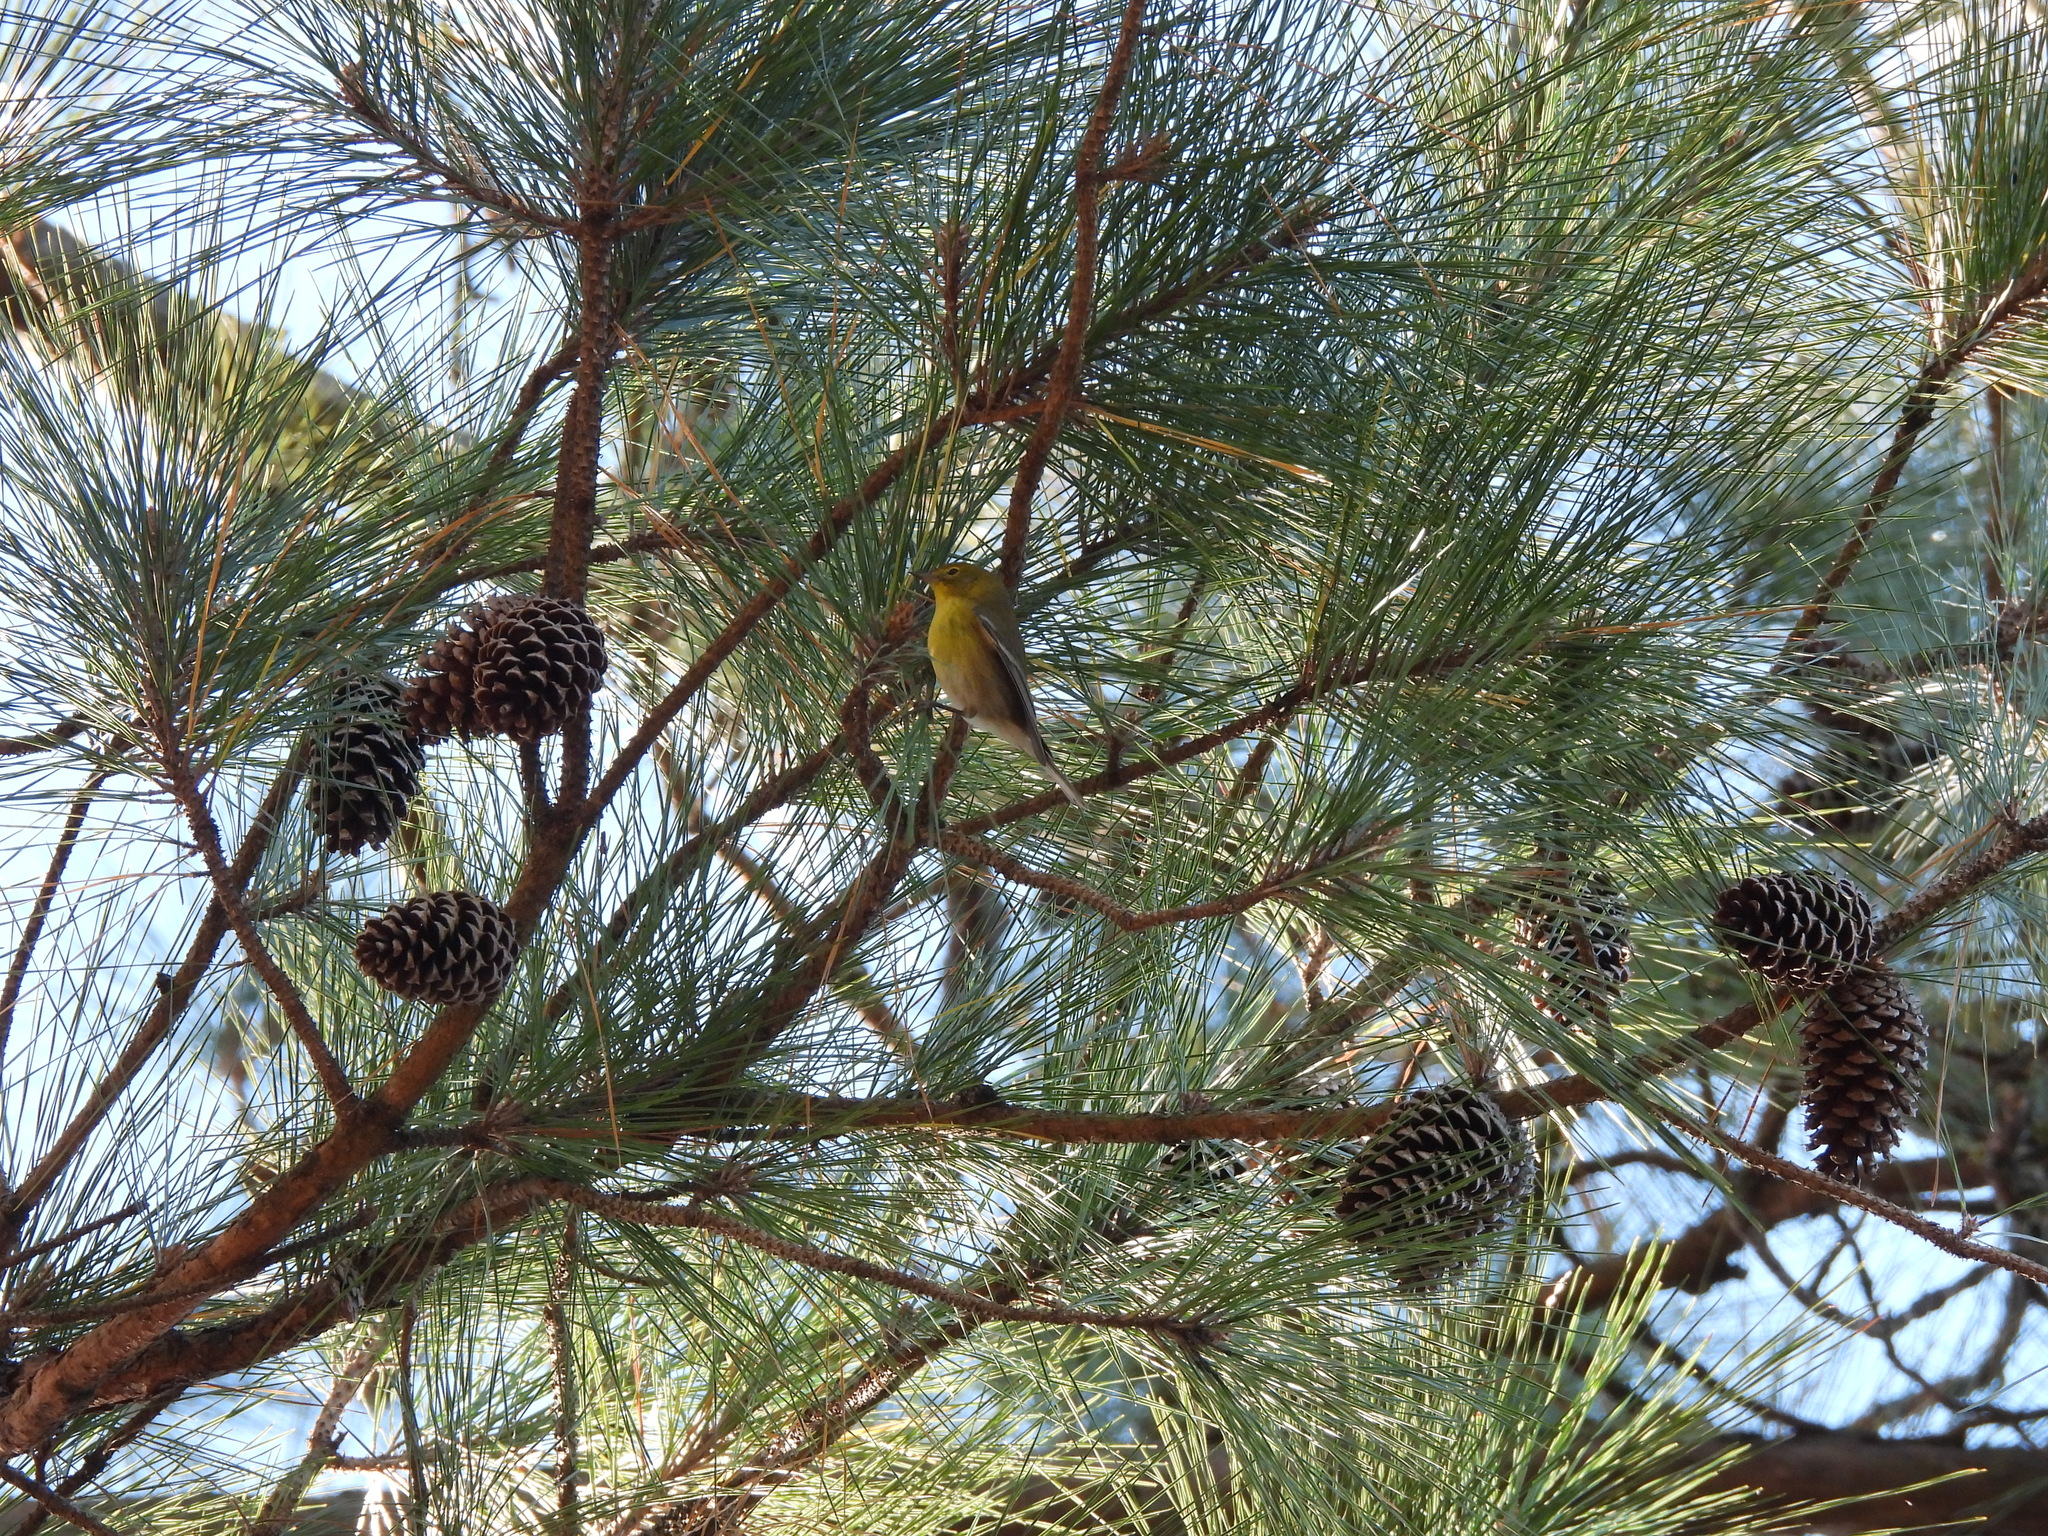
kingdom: Animalia
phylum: Chordata
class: Aves
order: Passeriformes
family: Parulidae
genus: Setophaga
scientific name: Setophaga pinus
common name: Pine warbler
